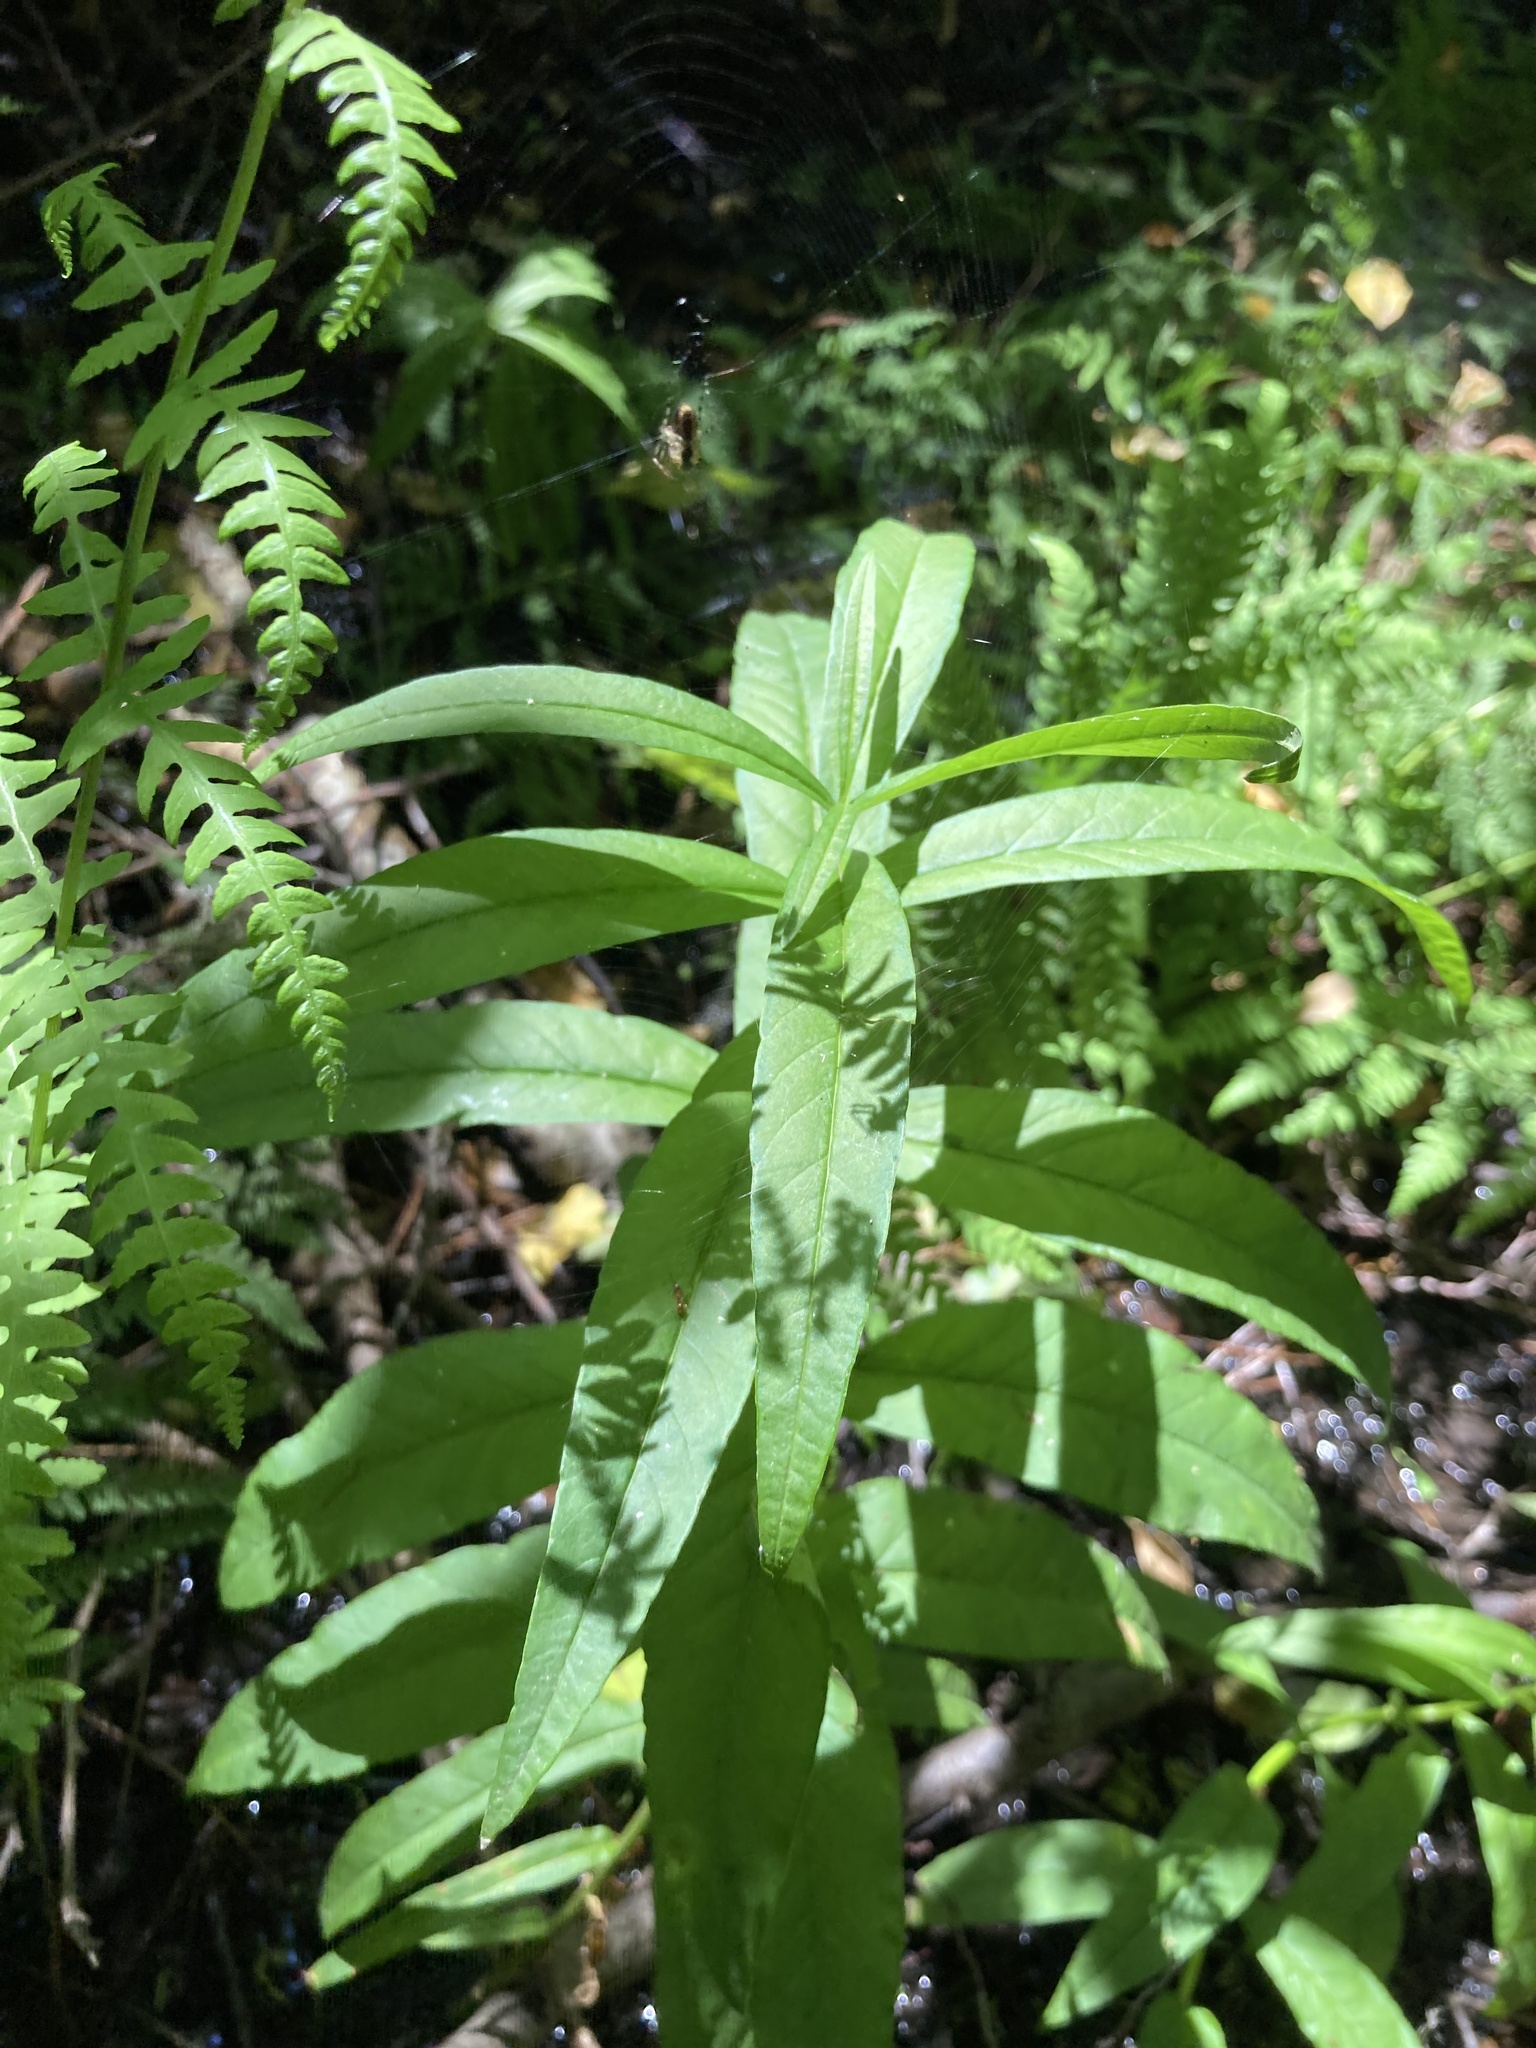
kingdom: Plantae
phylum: Tracheophyta
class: Magnoliopsida
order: Ericales
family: Primulaceae
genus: Lysimachia
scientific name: Lysimachia vulgaris
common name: Yellow loosestrife
